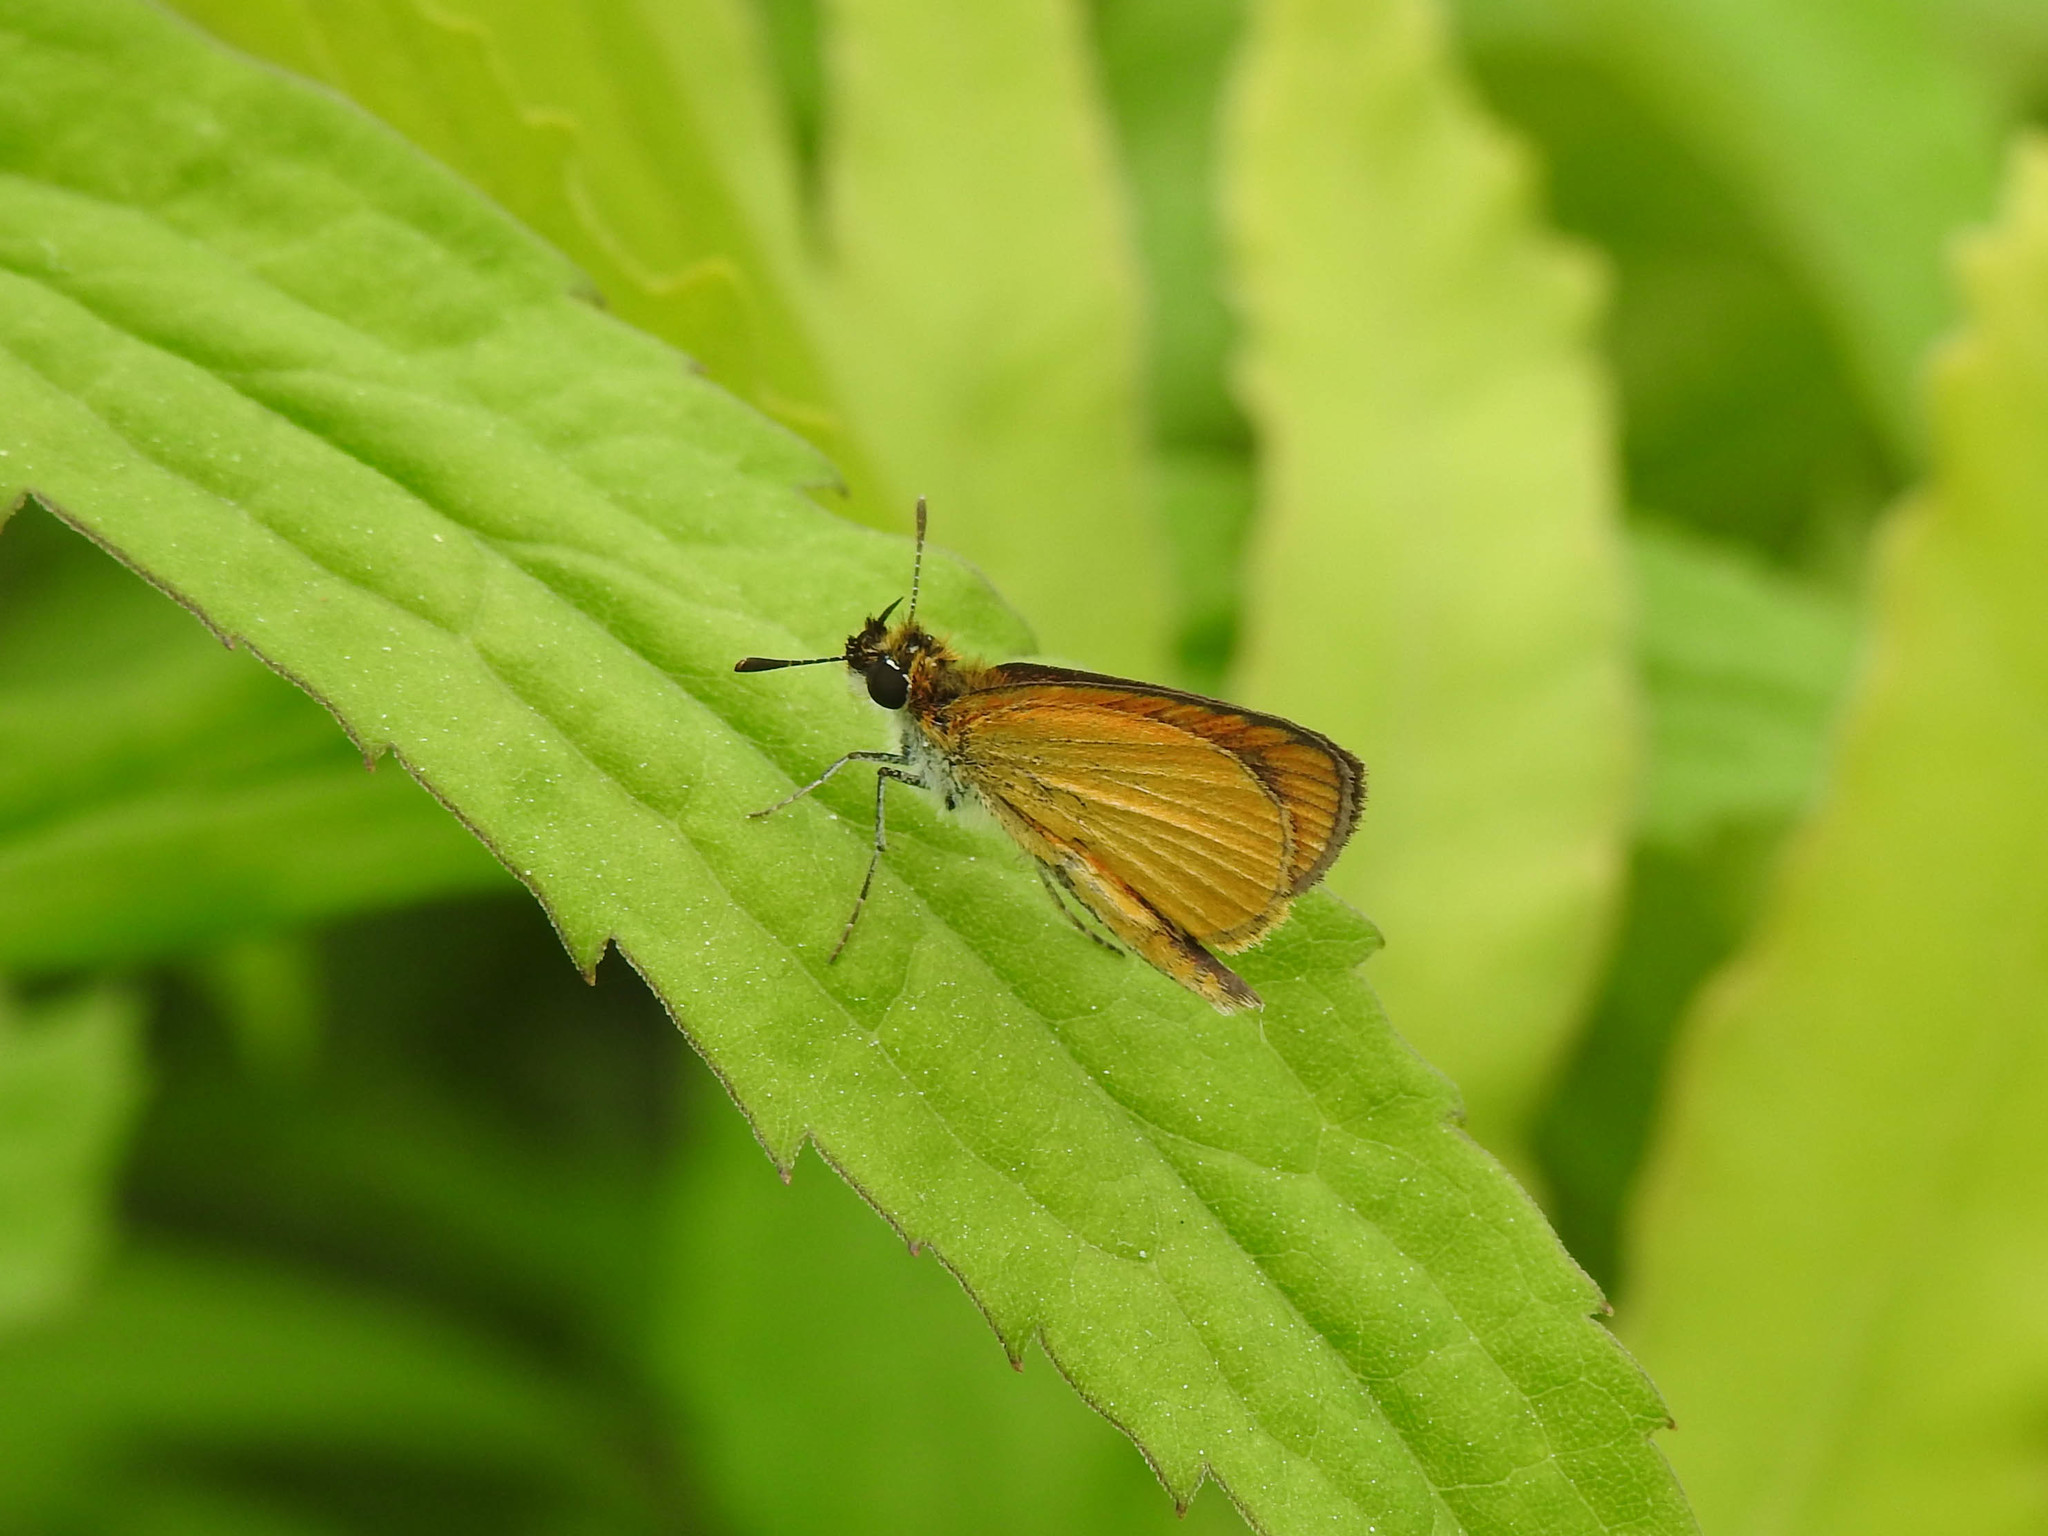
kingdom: Animalia
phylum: Arthropoda
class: Insecta
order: Lepidoptera
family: Hesperiidae
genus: Ancyloxypha
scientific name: Ancyloxypha numitor
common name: Least skipper
